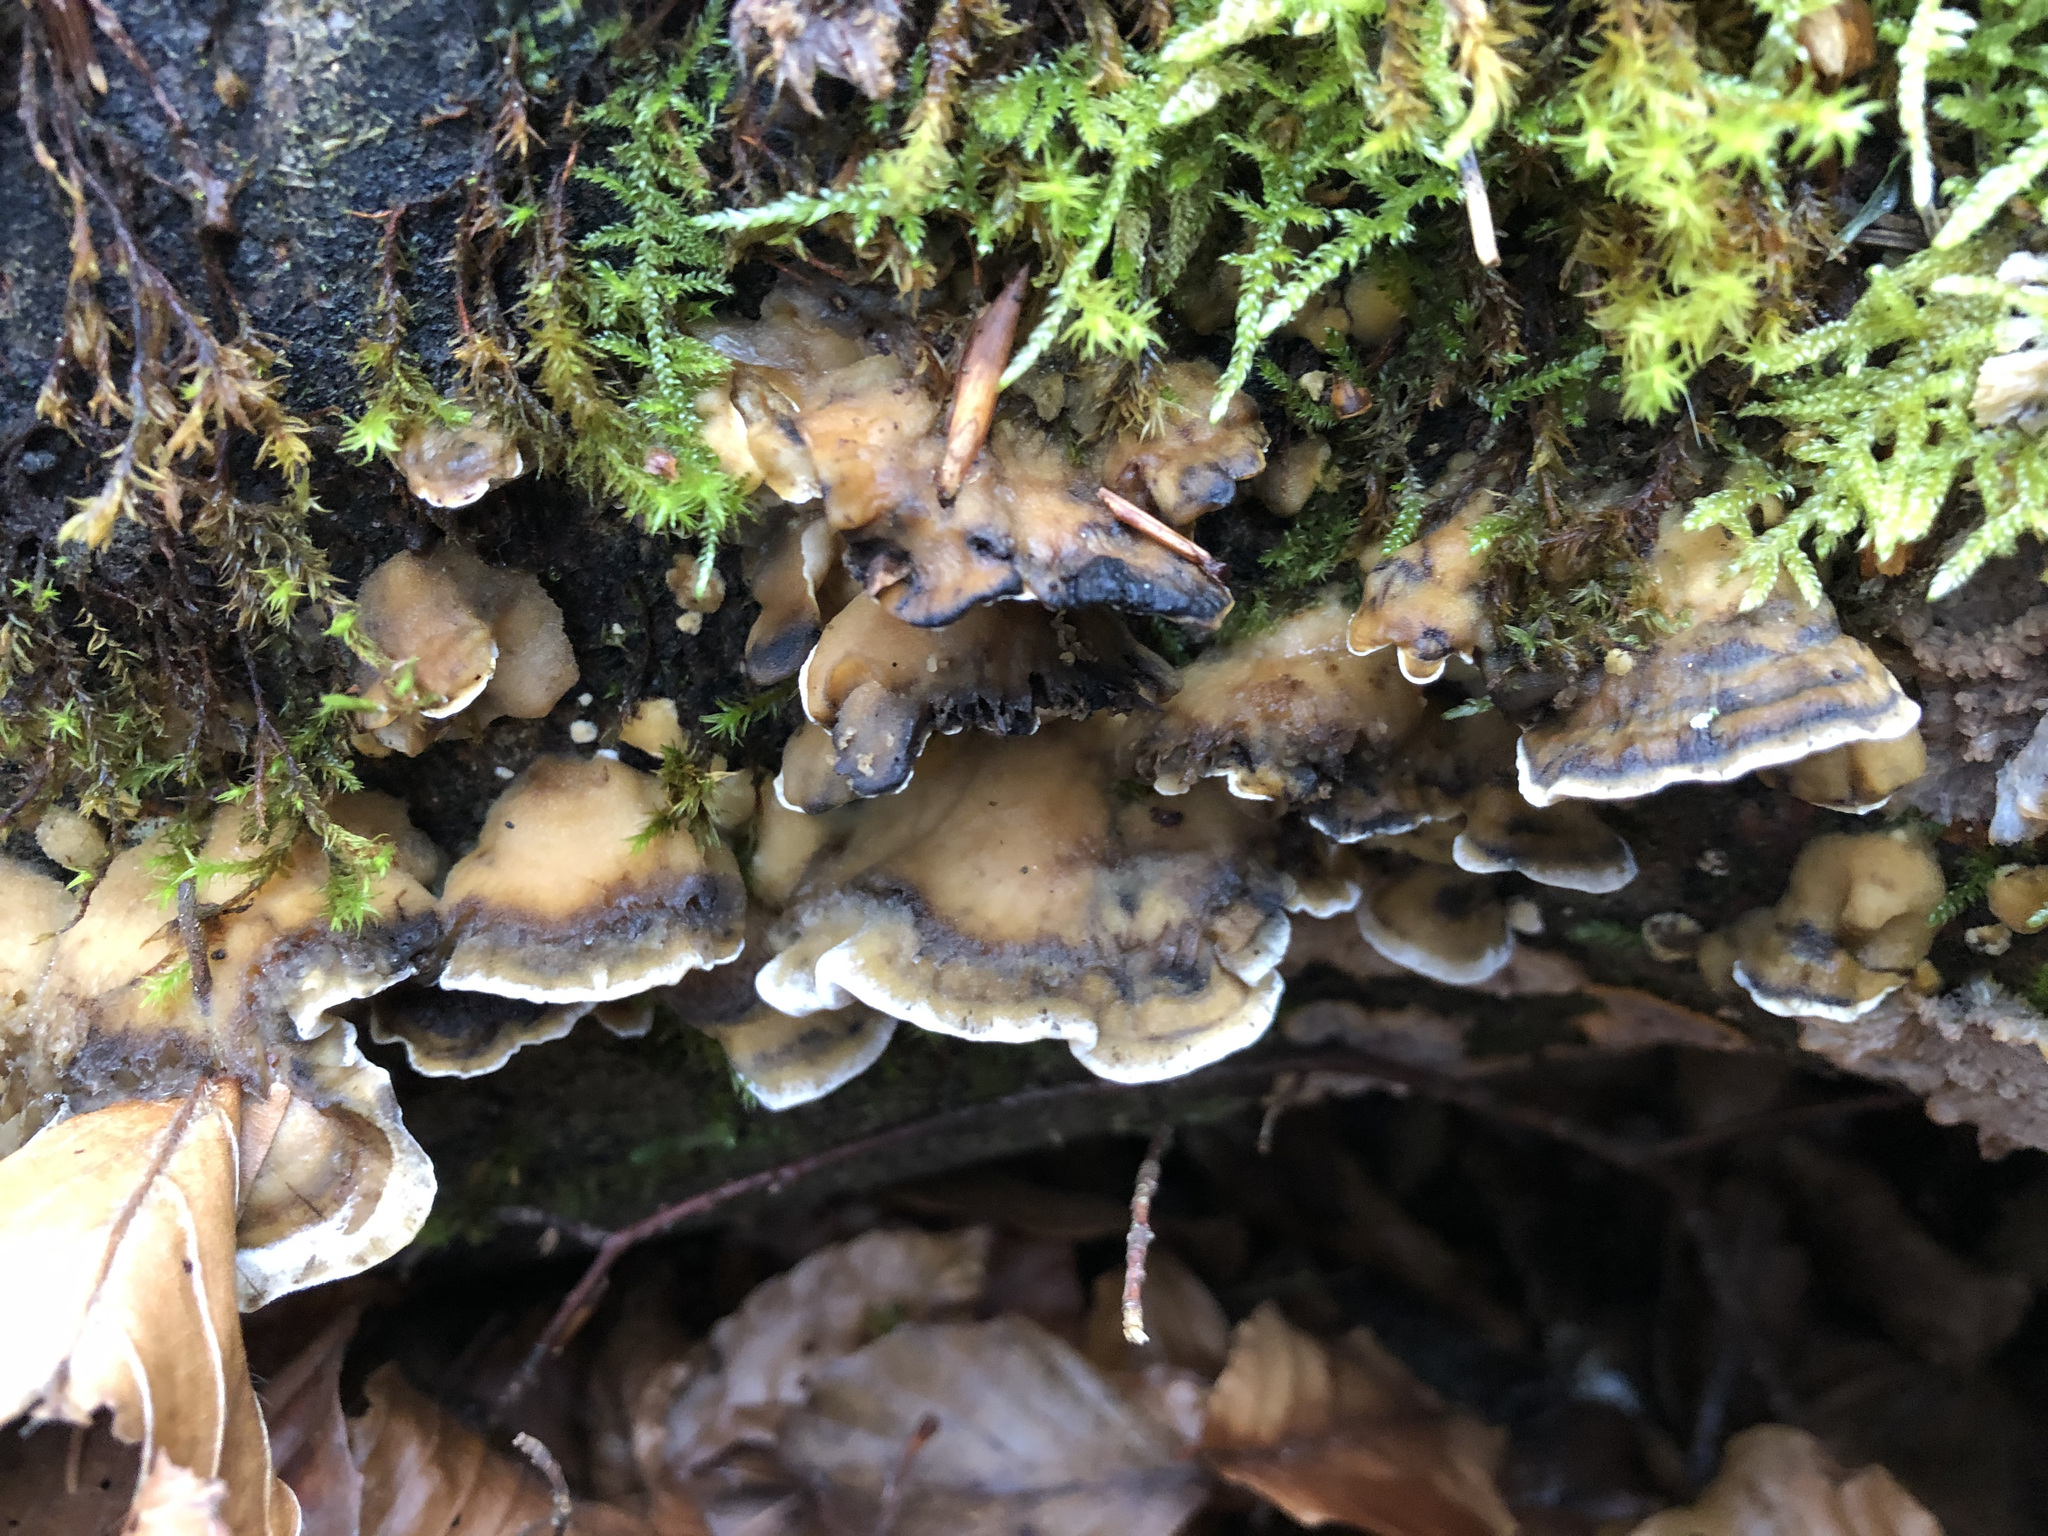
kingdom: Fungi
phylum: Basidiomycota
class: Agaricomycetes
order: Polyporales
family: Phanerochaetaceae
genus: Bjerkandera
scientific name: Bjerkandera adusta
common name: Smoky bracket
